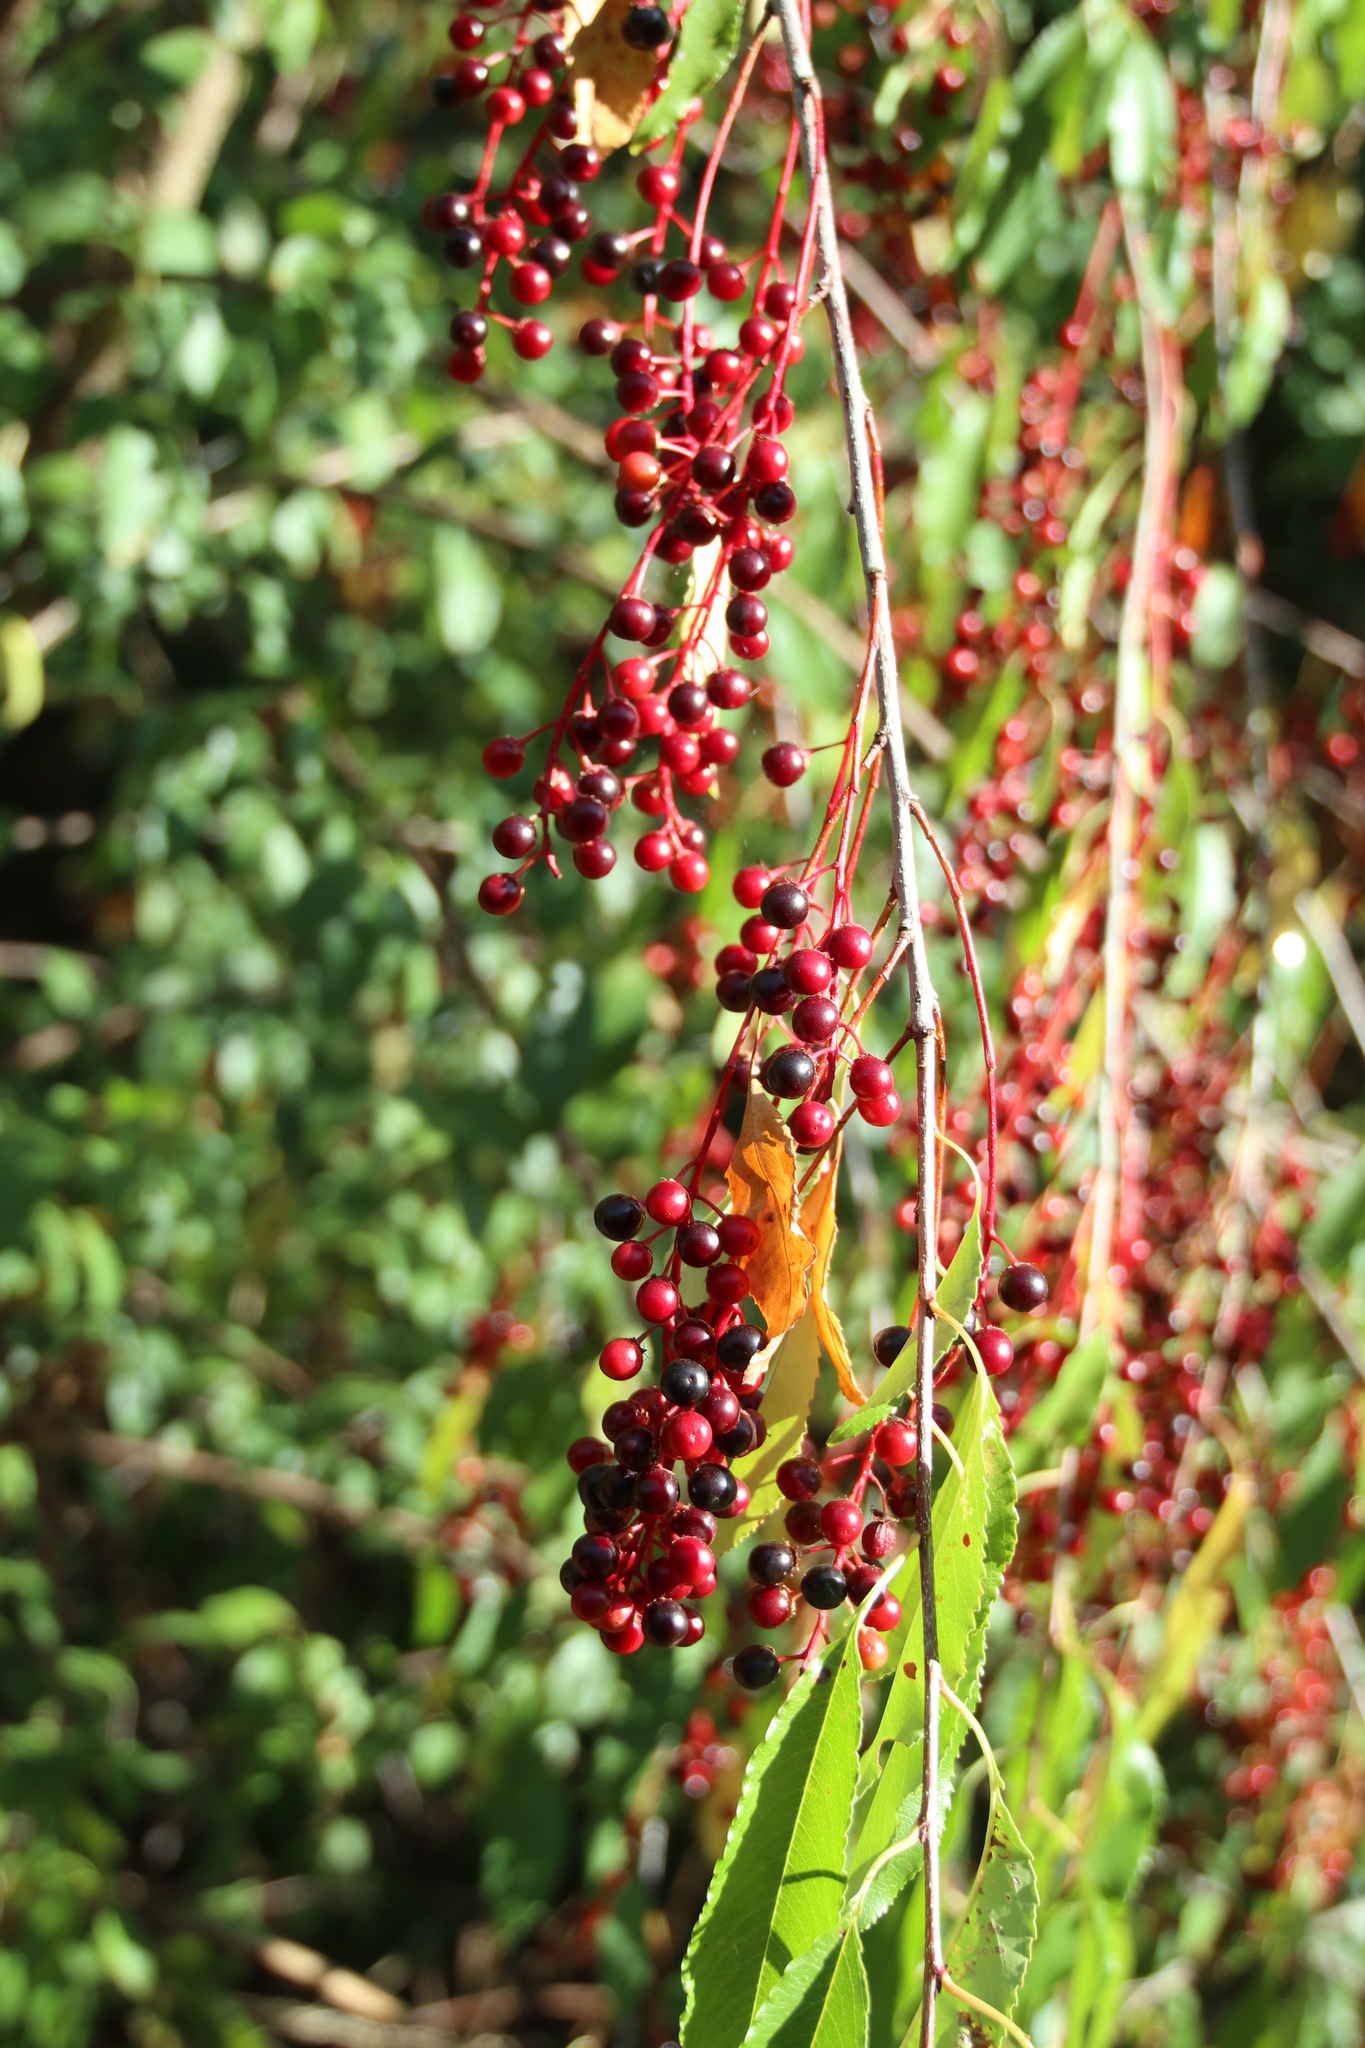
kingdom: Plantae
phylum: Tracheophyta
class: Magnoliopsida
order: Rosales
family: Rosaceae
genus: Prunus
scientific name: Prunus serotina
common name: Black cherry
